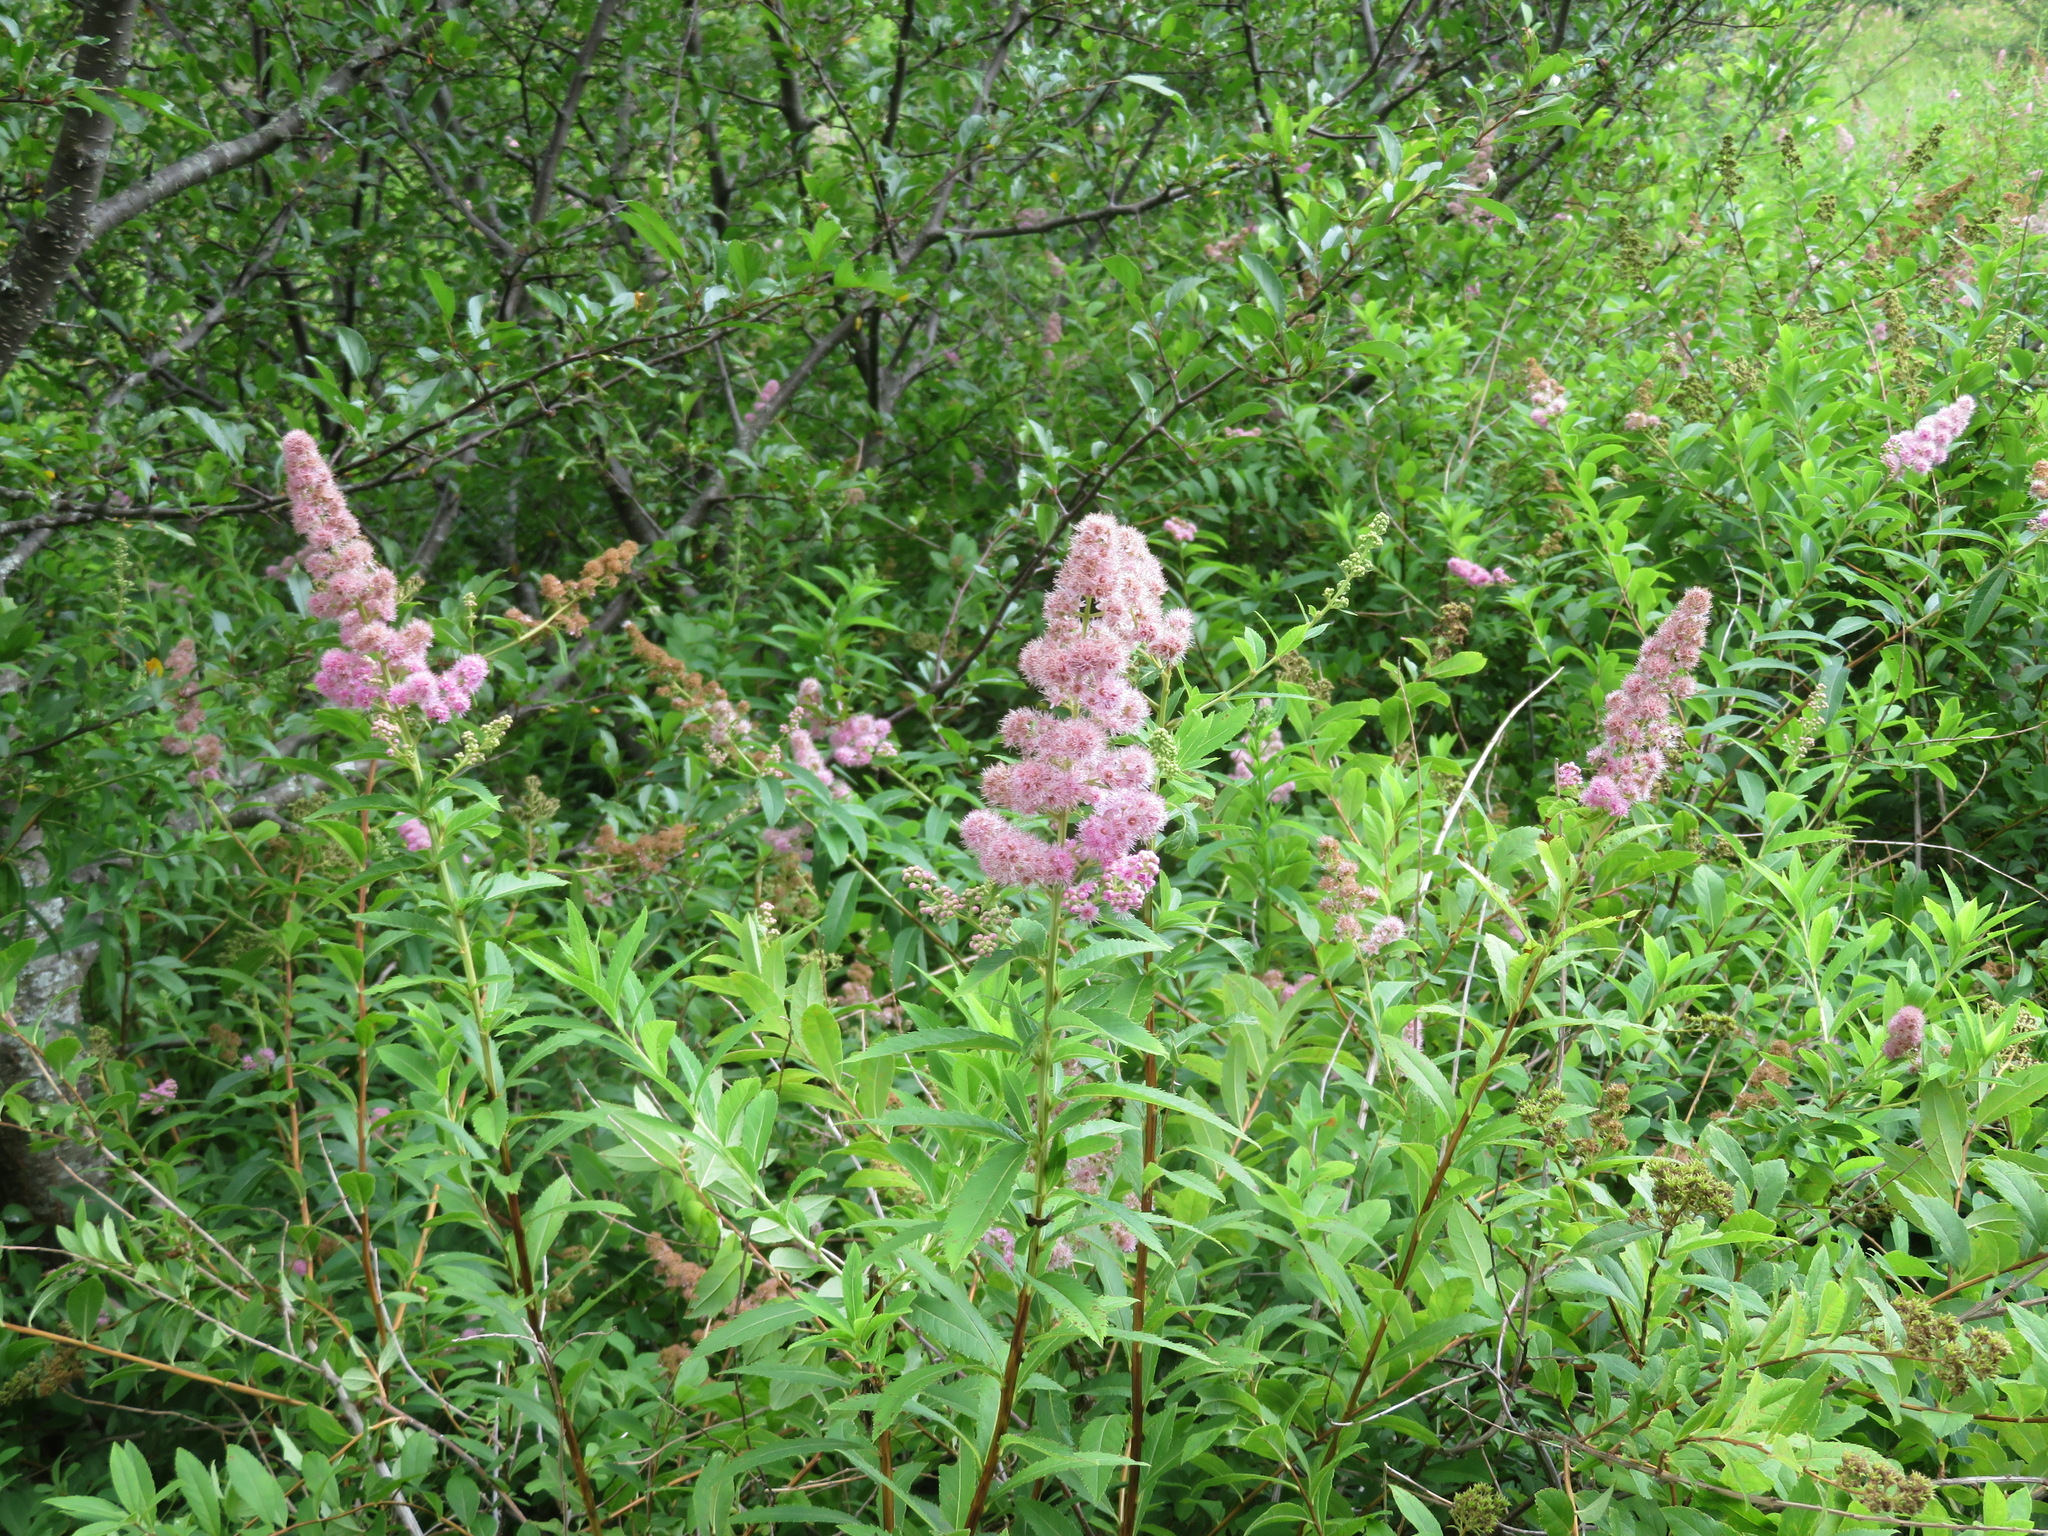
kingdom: Plantae
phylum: Tracheophyta
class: Magnoliopsida
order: Rosales
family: Rosaceae
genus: Spiraea
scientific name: Spiraea salicifolia
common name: Bridewort
